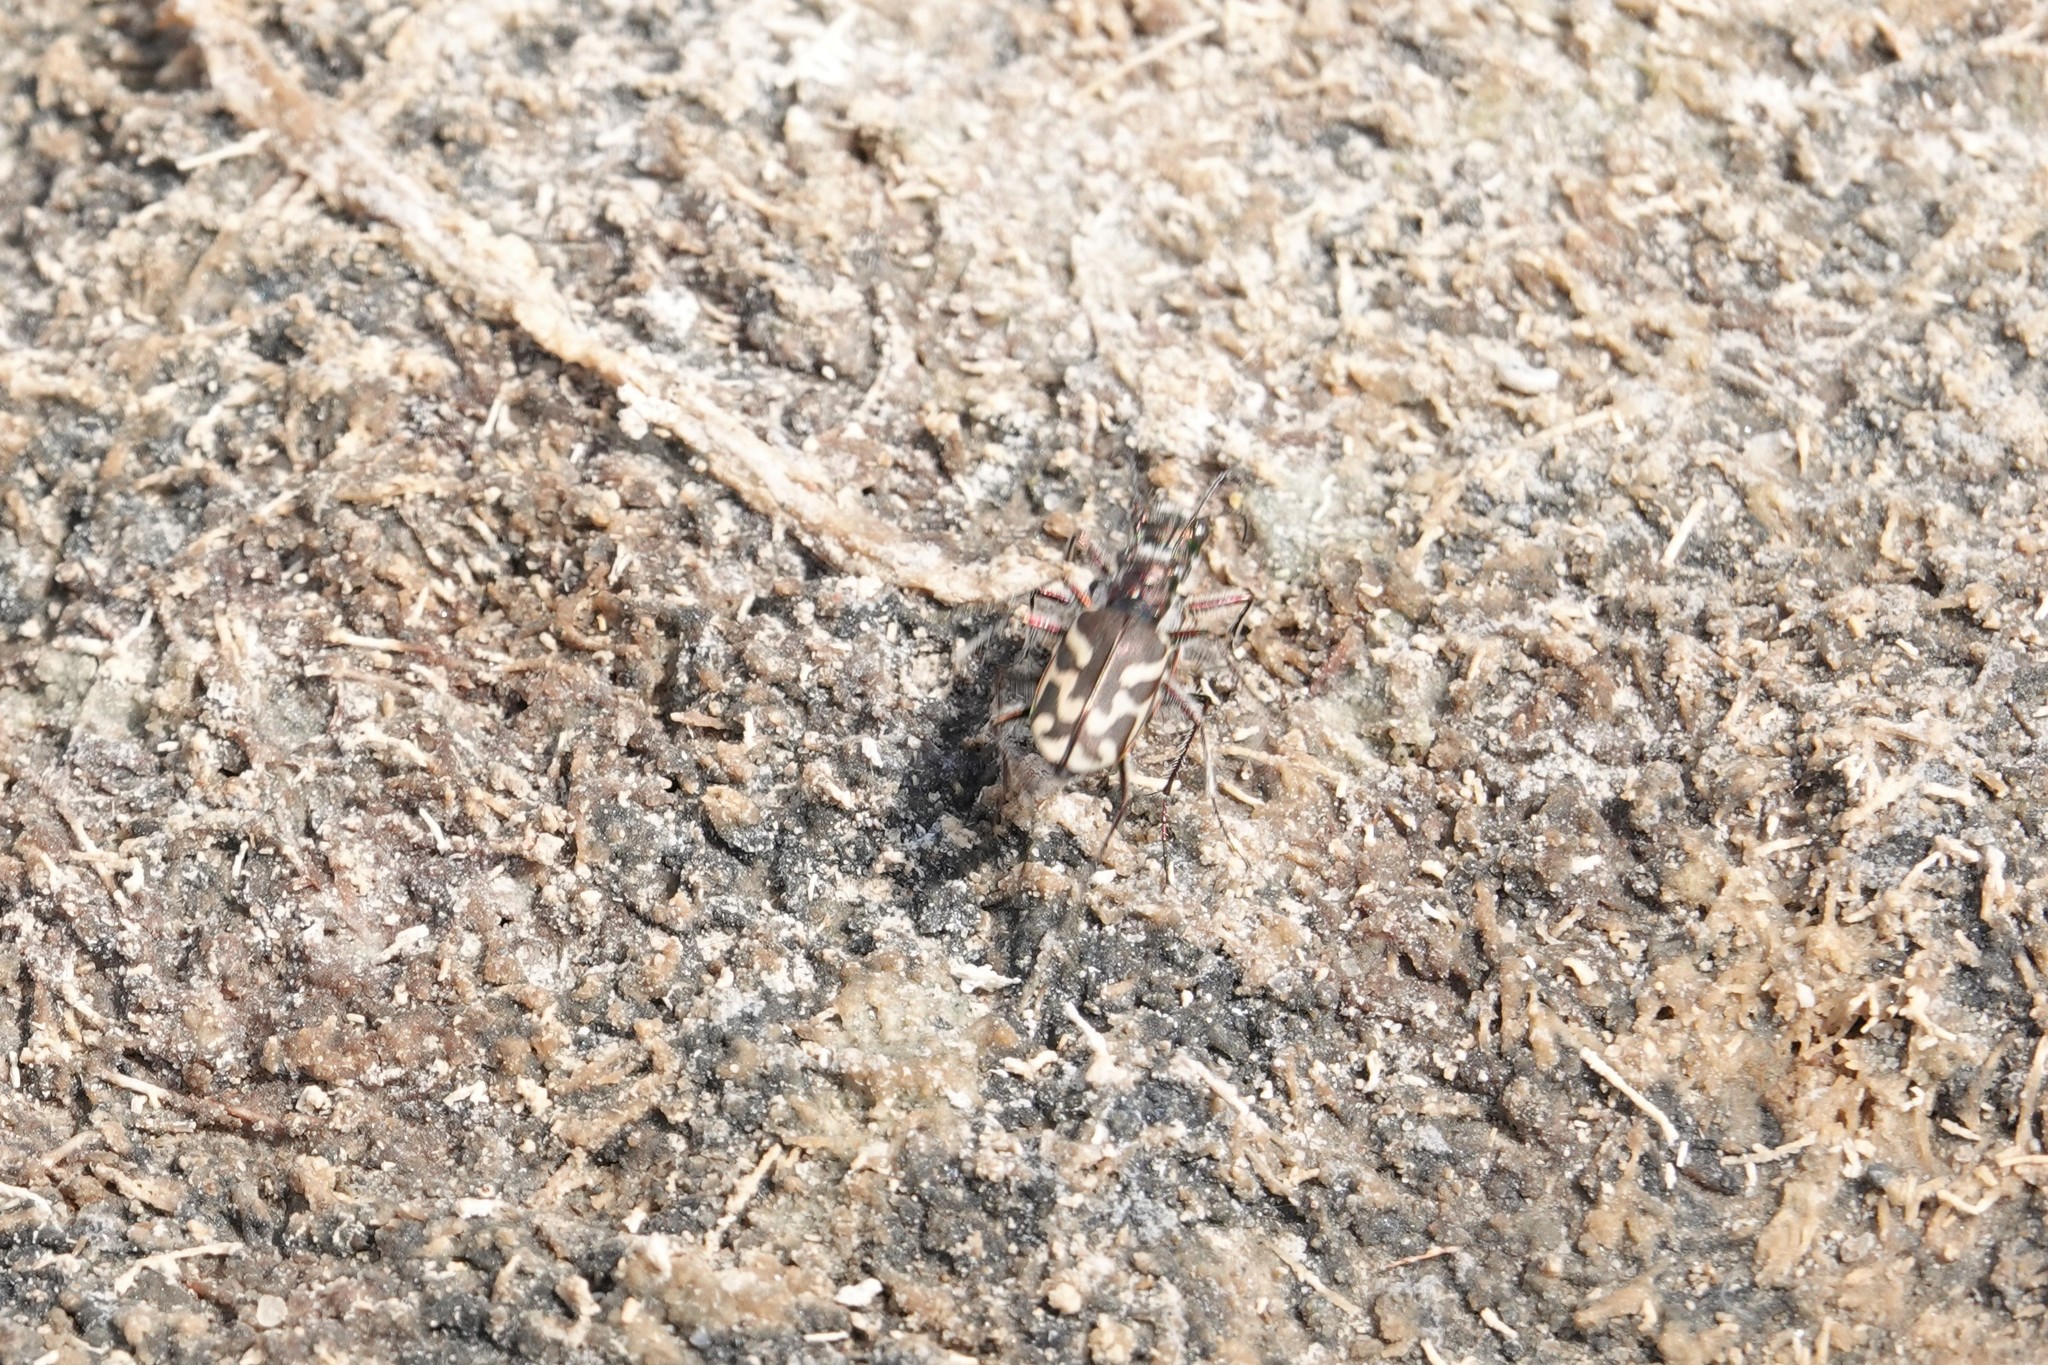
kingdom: Animalia
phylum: Arthropoda
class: Insecta
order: Coleoptera
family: Carabidae
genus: Cicindela
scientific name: Cicindela tranquebarica
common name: Oblique-lined tiger beetle
